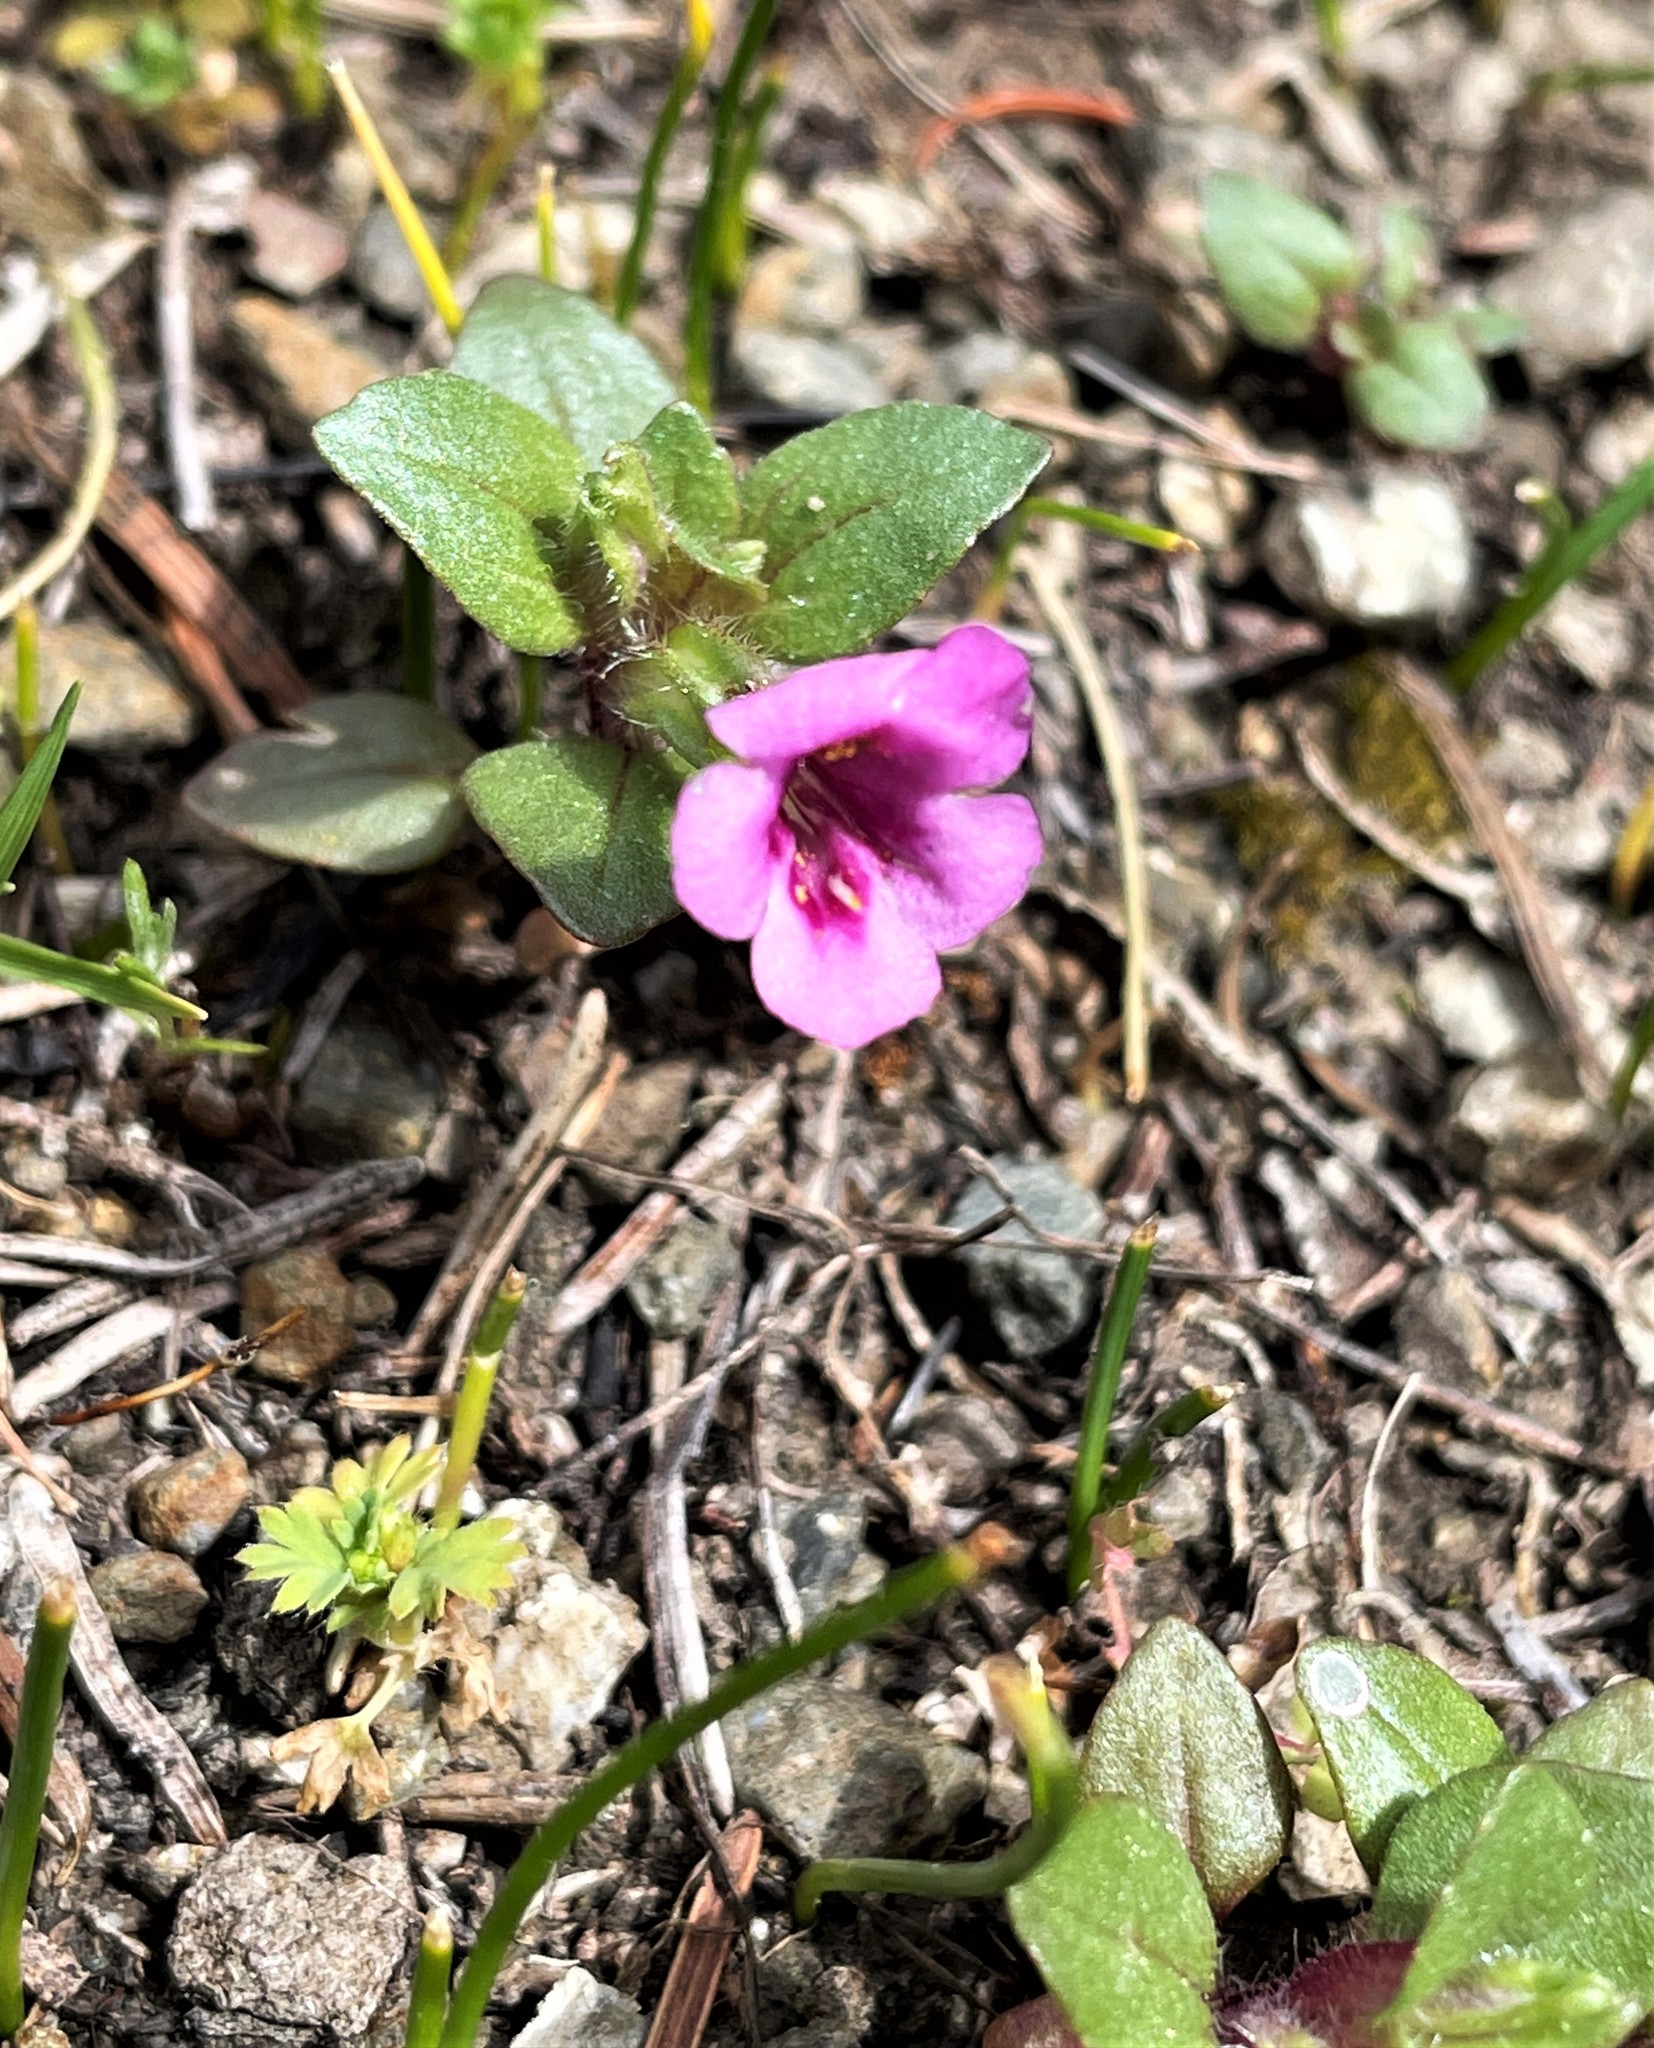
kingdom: Plantae
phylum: Tracheophyta
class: Magnoliopsida
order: Lamiales
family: Phrymaceae
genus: Diplacus
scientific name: Diplacus congdonii
